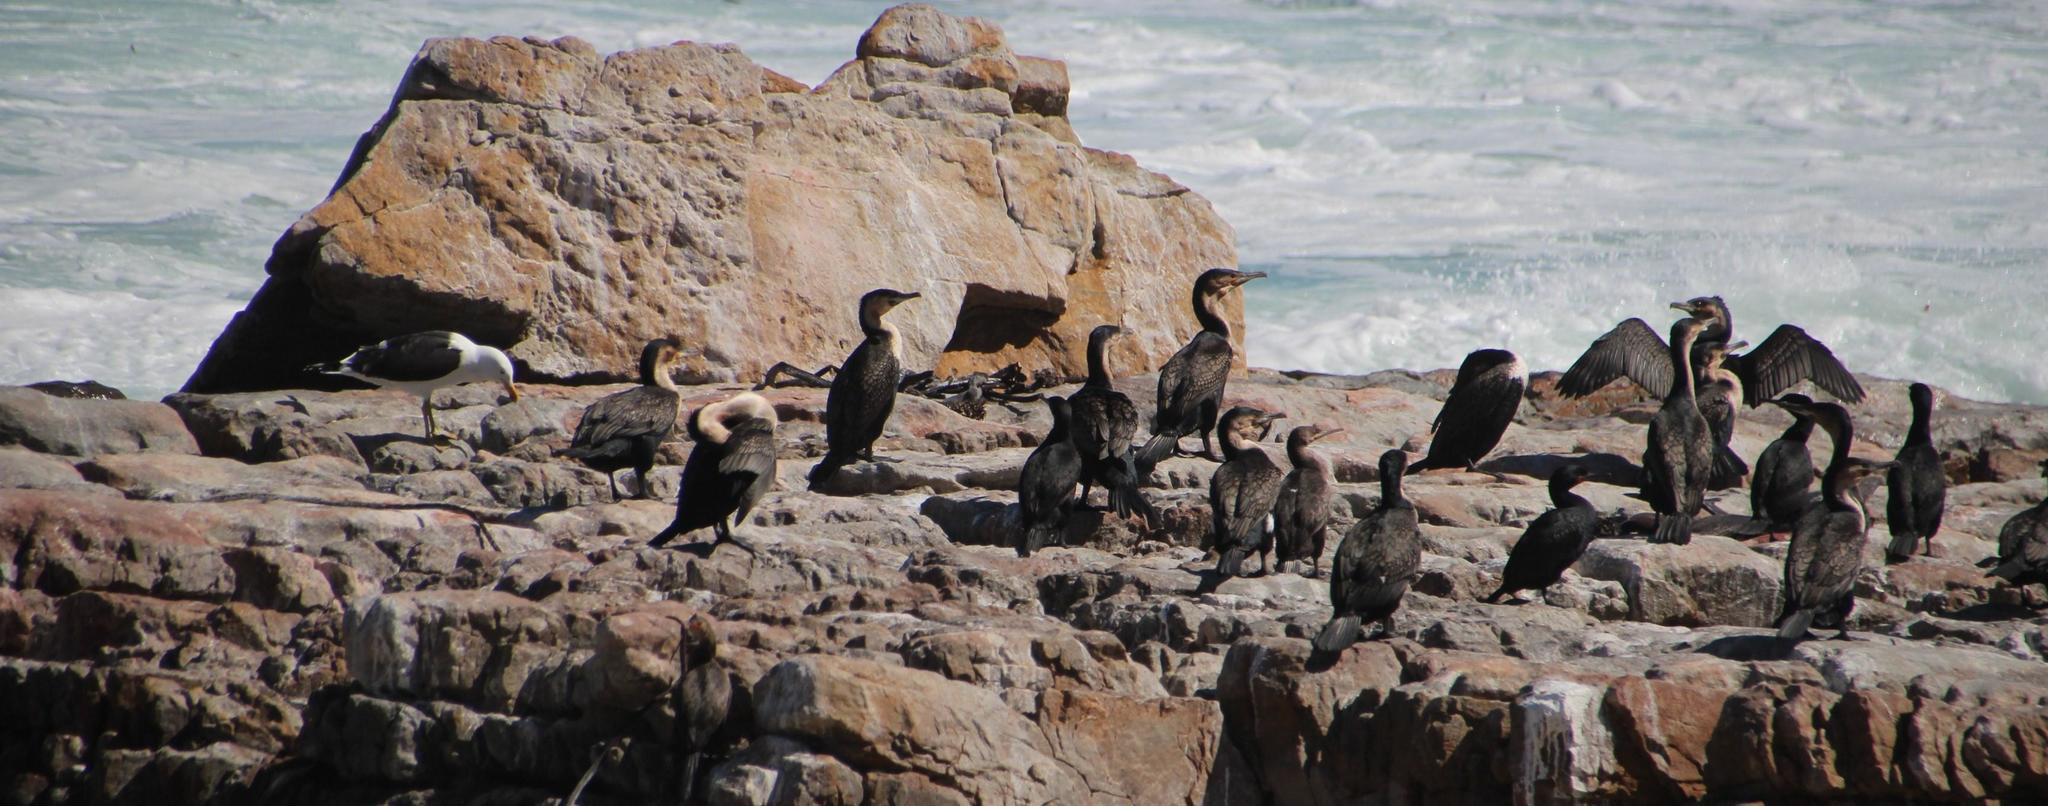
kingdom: Animalia
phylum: Chordata
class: Aves
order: Suliformes
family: Phalacrocoracidae
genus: Phalacrocorax
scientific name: Phalacrocorax carbo
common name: Great cormorant
